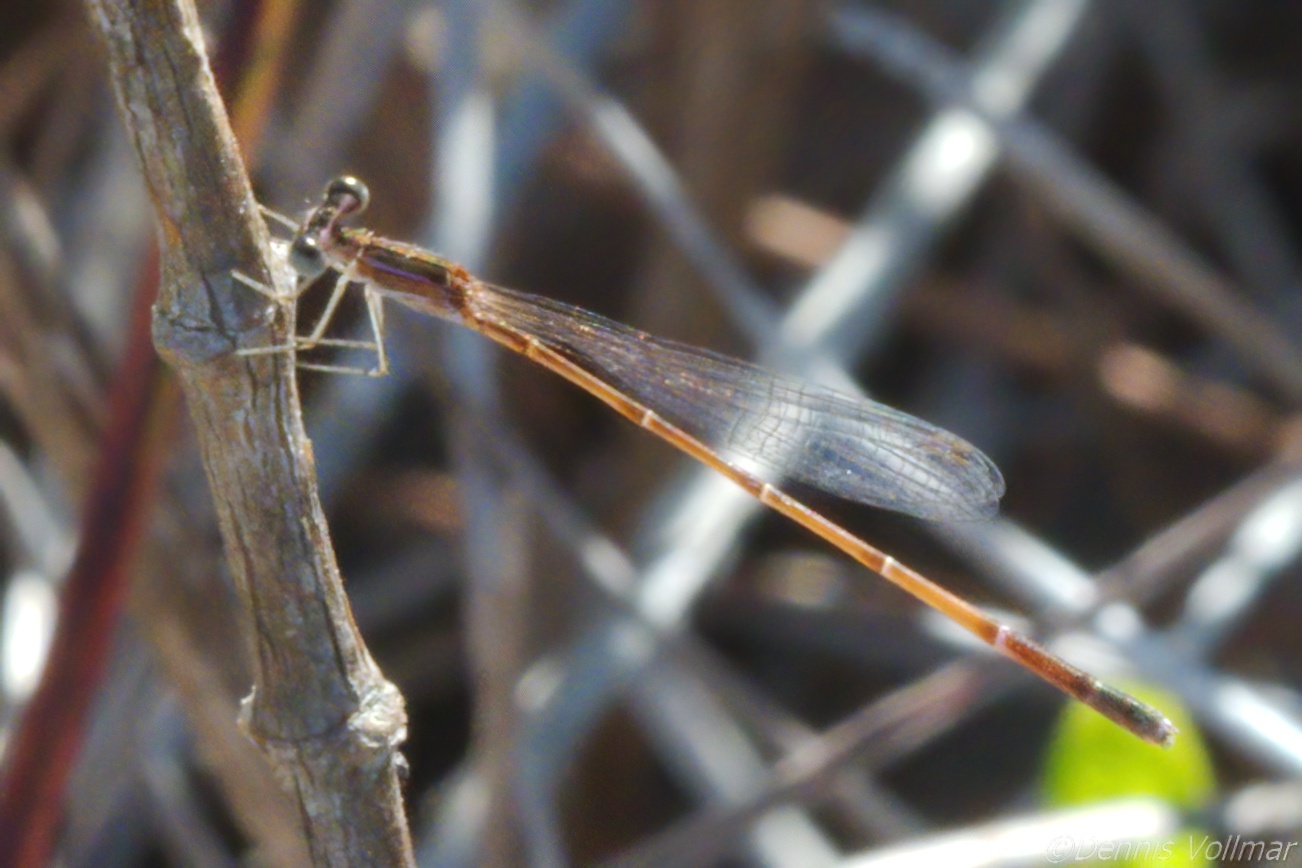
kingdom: Animalia
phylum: Arthropoda
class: Insecta
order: Odonata
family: Coenagrionidae
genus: Nehalennia
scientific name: Nehalennia pallidula
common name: Everglades sprite
